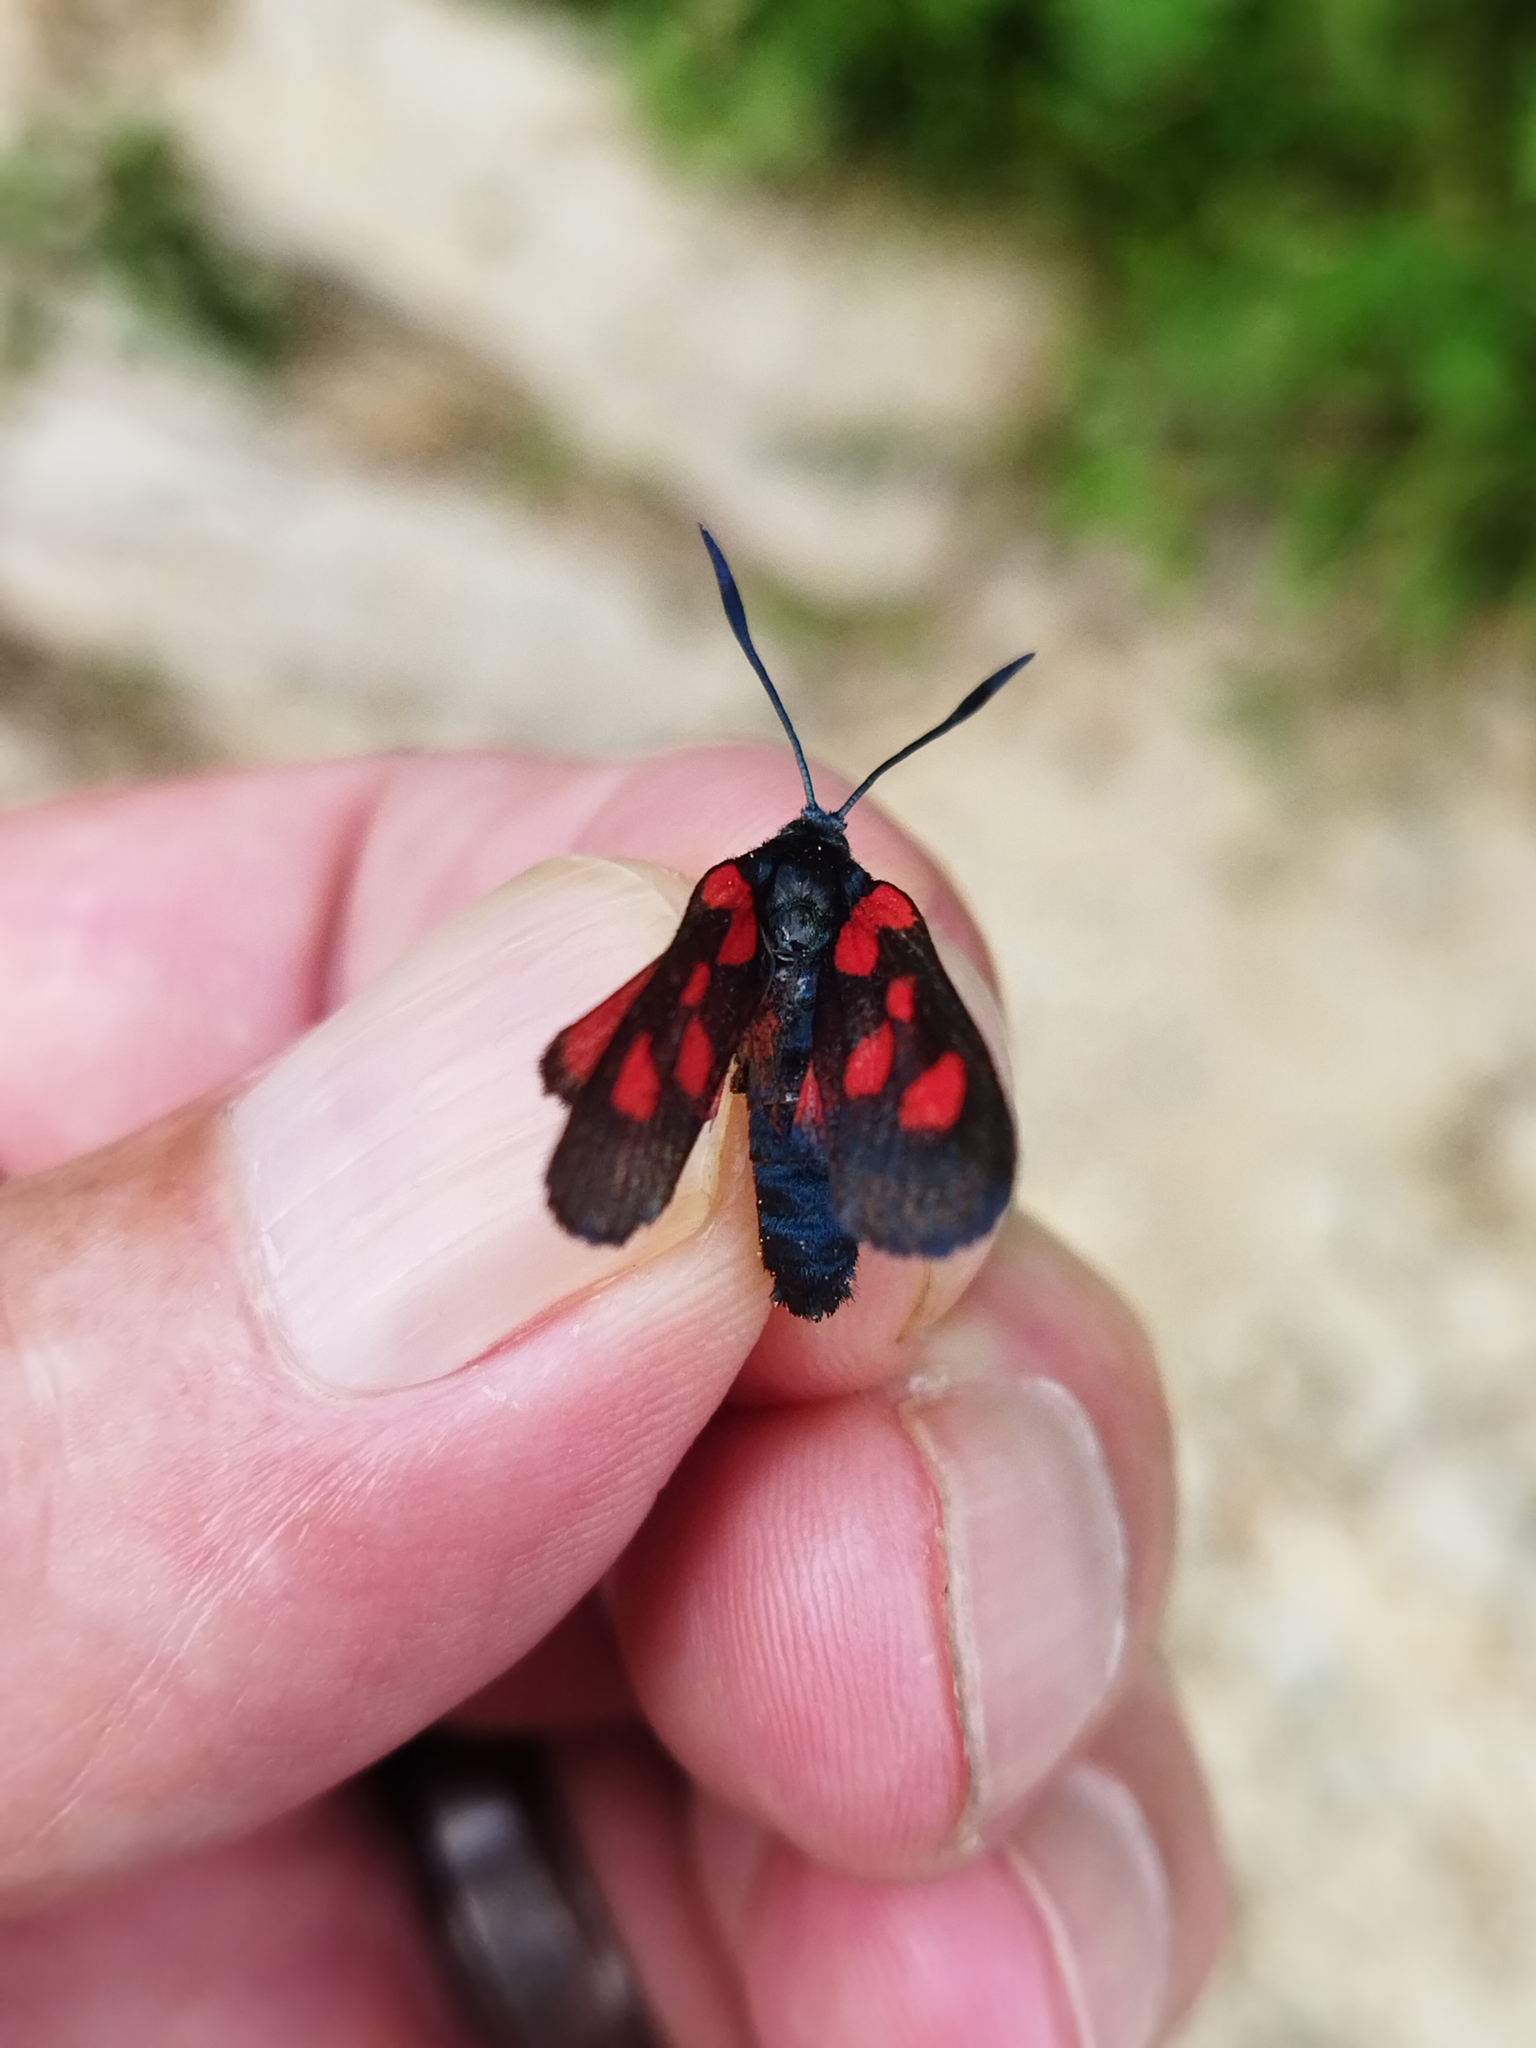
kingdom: Animalia
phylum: Arthropoda
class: Insecta
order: Lepidoptera
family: Zygaenidae
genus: Zygaena
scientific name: Zygaena lonicerae
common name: Narrow-bordered five-spot burnet
